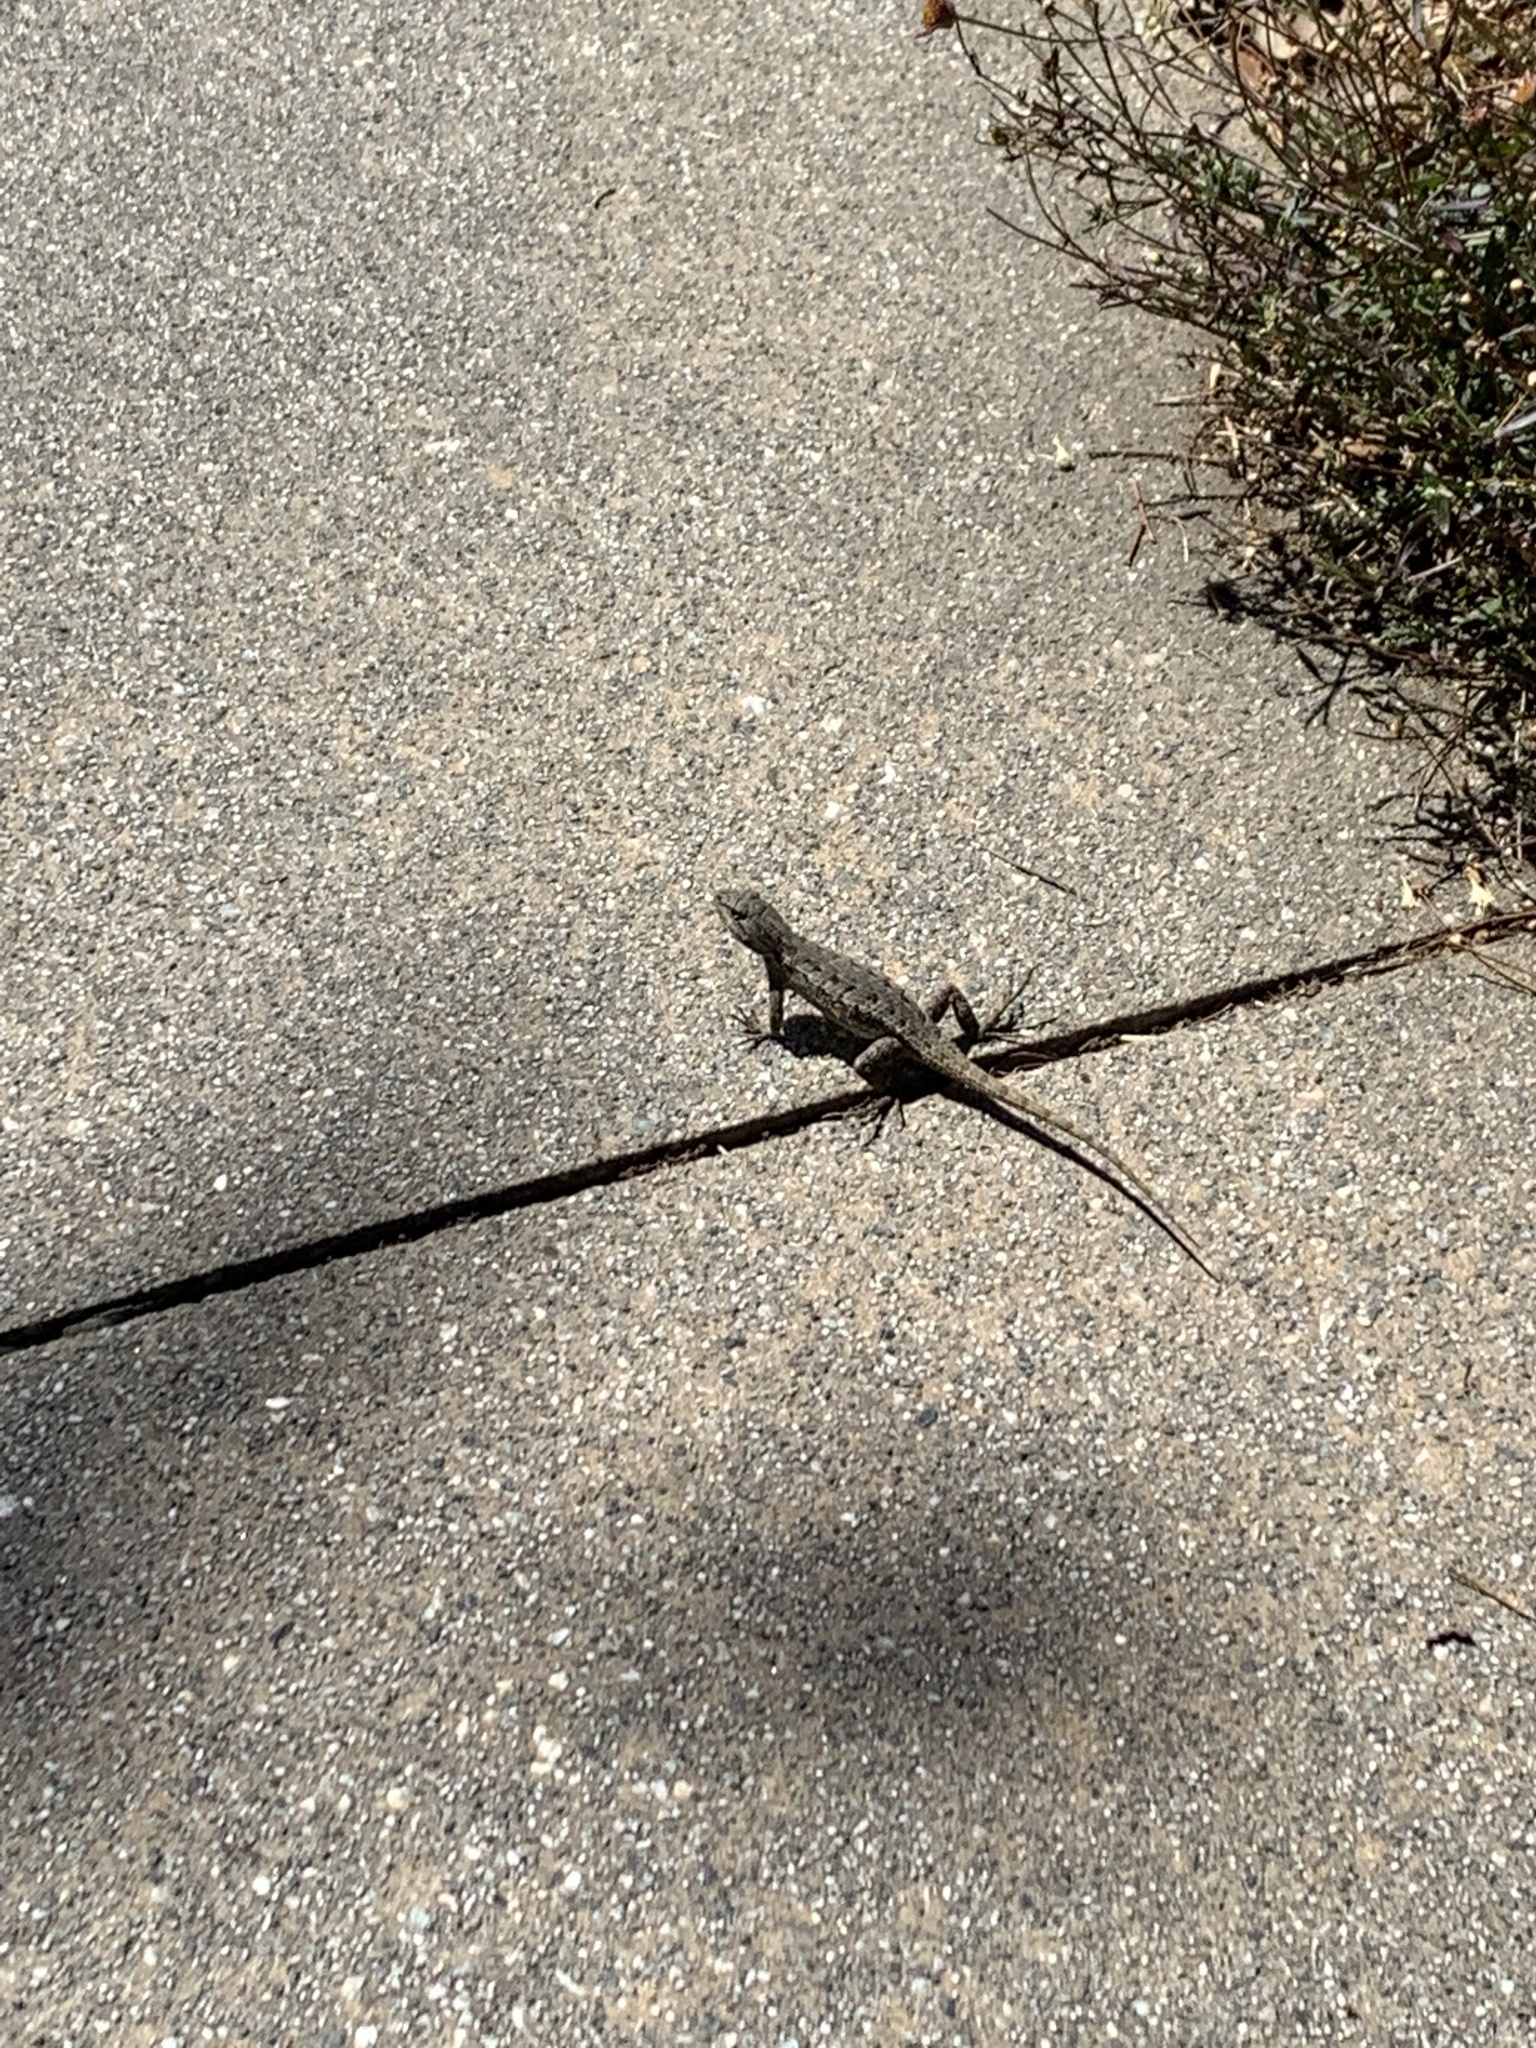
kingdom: Animalia
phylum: Chordata
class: Squamata
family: Phrynosomatidae
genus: Sceloporus
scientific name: Sceloporus occidentalis
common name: Western fence lizard
